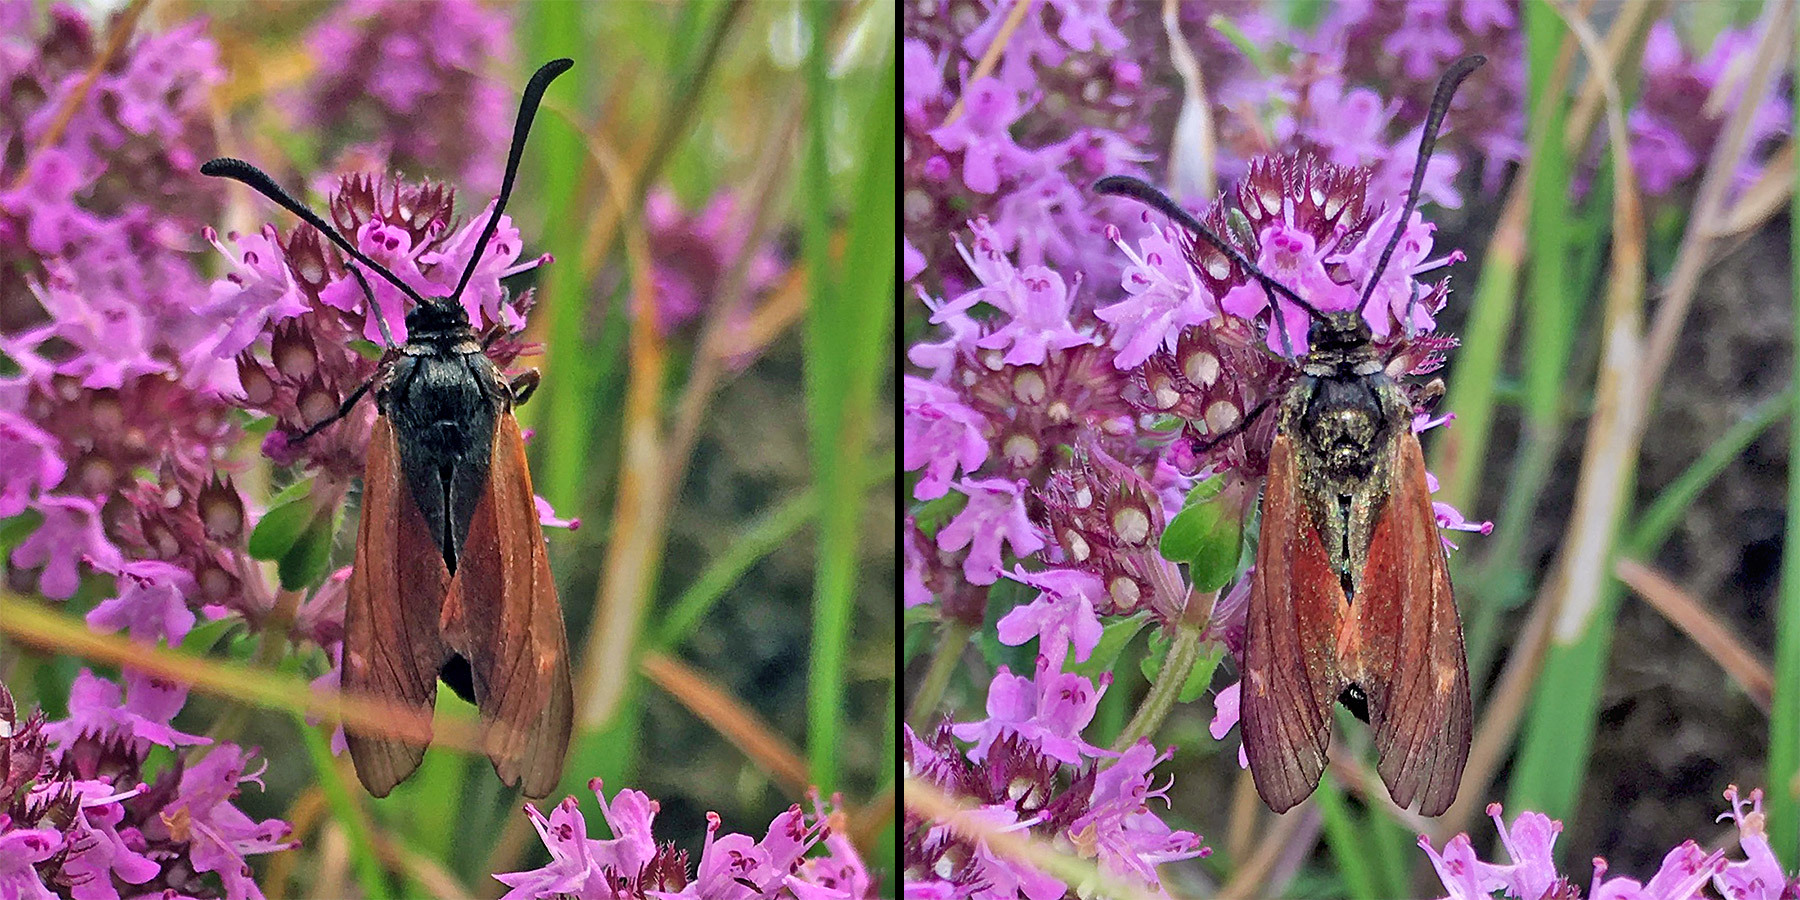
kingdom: Animalia
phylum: Arthropoda
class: Insecta
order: Lepidoptera
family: Zygaenidae
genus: Zygaena
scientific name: Zygaena purpuralis
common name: Transparent burnet
